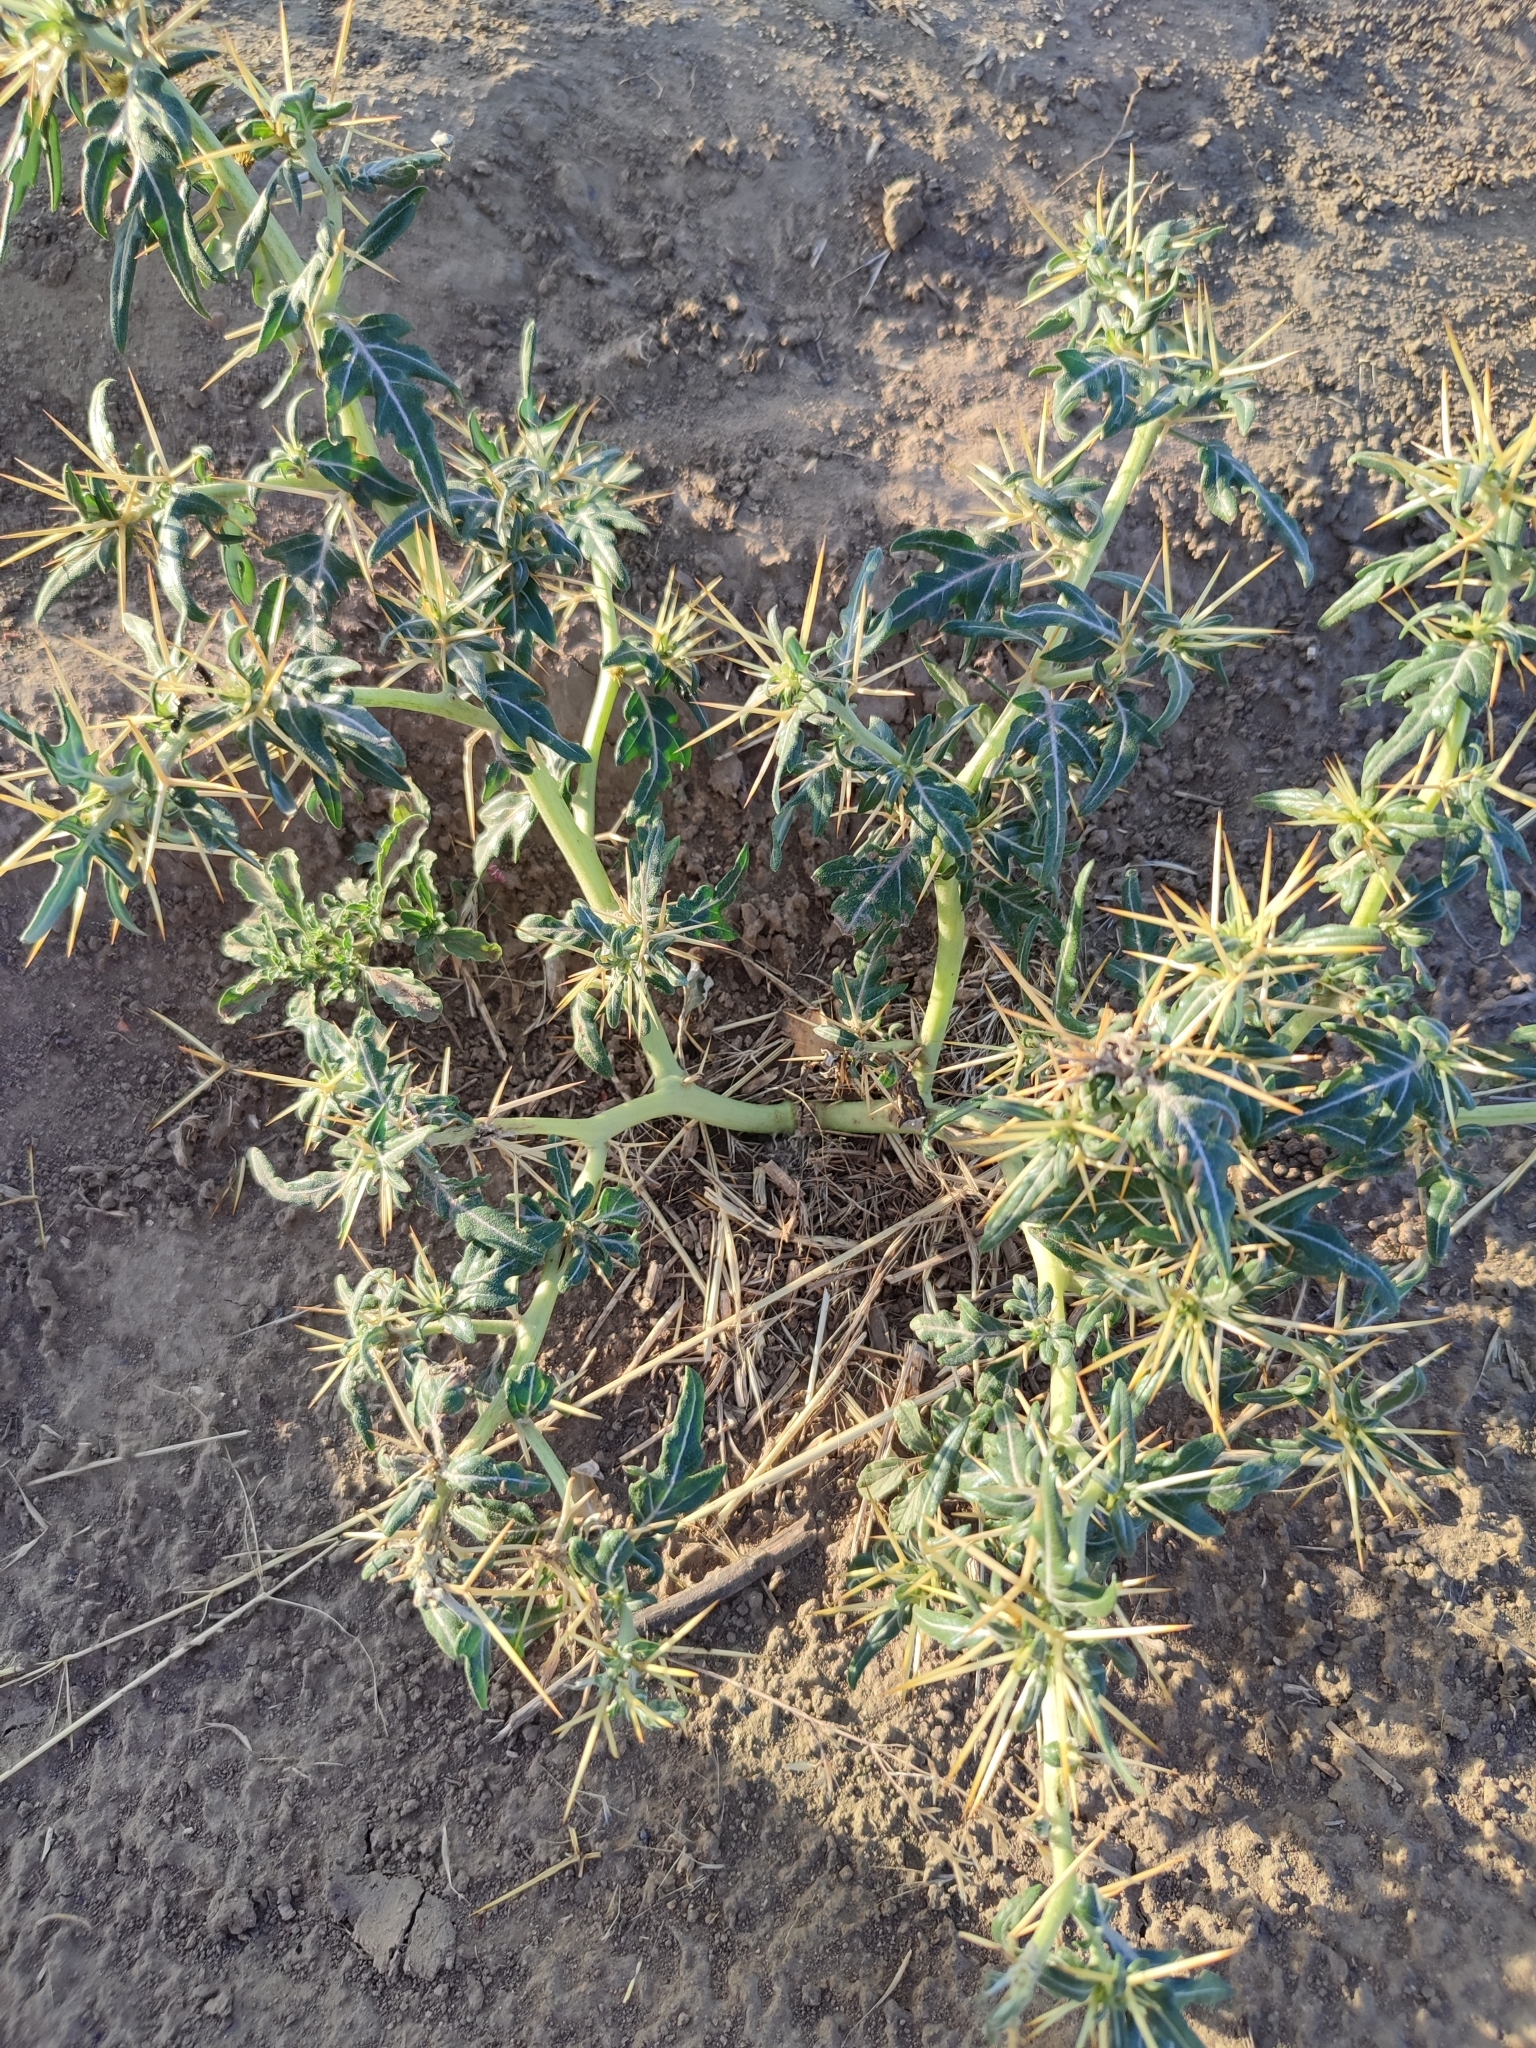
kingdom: Plantae
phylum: Tracheophyta
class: Magnoliopsida
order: Asterales
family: Asteraceae
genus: Xanthium
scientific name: Xanthium spinosum
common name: Spiny cocklebur
